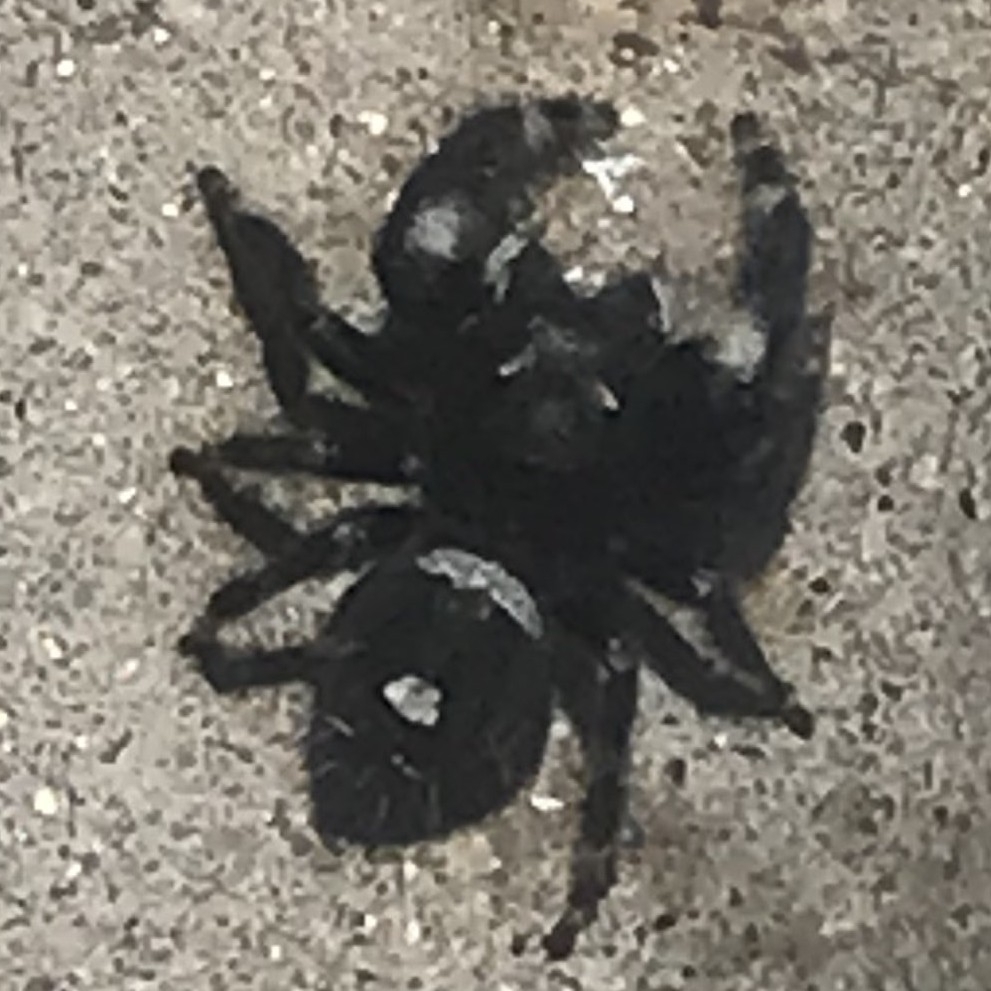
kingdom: Animalia
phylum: Arthropoda
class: Arachnida
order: Araneae
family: Salticidae
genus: Phidippus
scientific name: Phidippus audax
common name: Bold jumper
